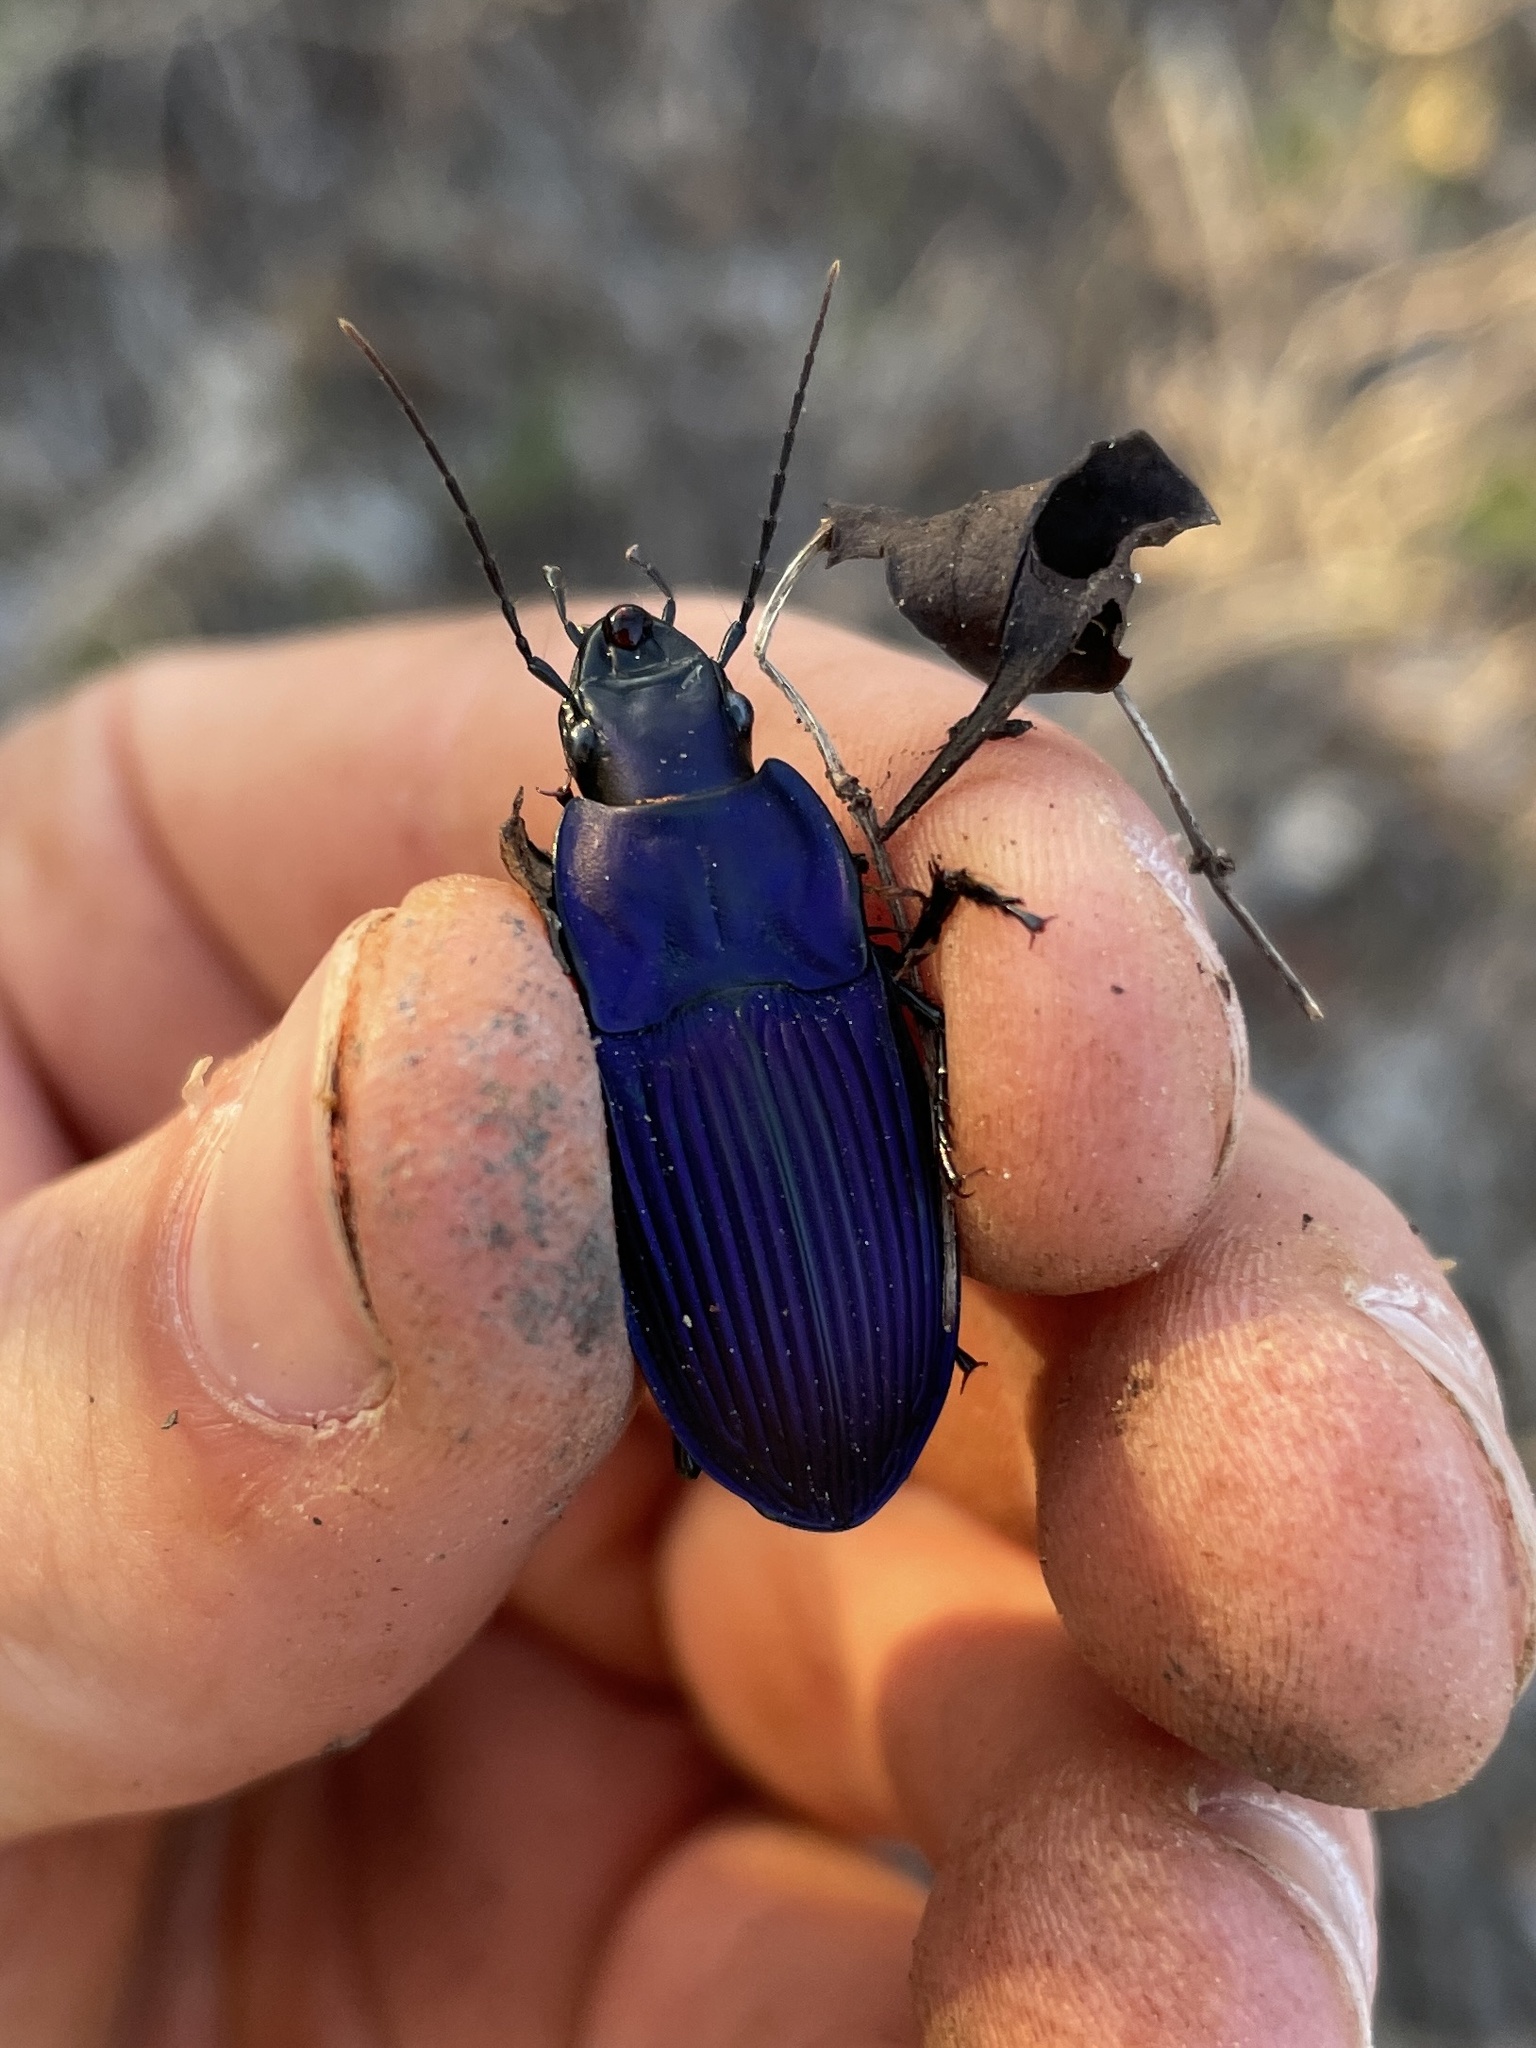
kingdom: Animalia
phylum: Arthropoda
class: Insecta
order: Coleoptera
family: Carabidae
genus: Dicaelus
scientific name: Dicaelus purpuratus
